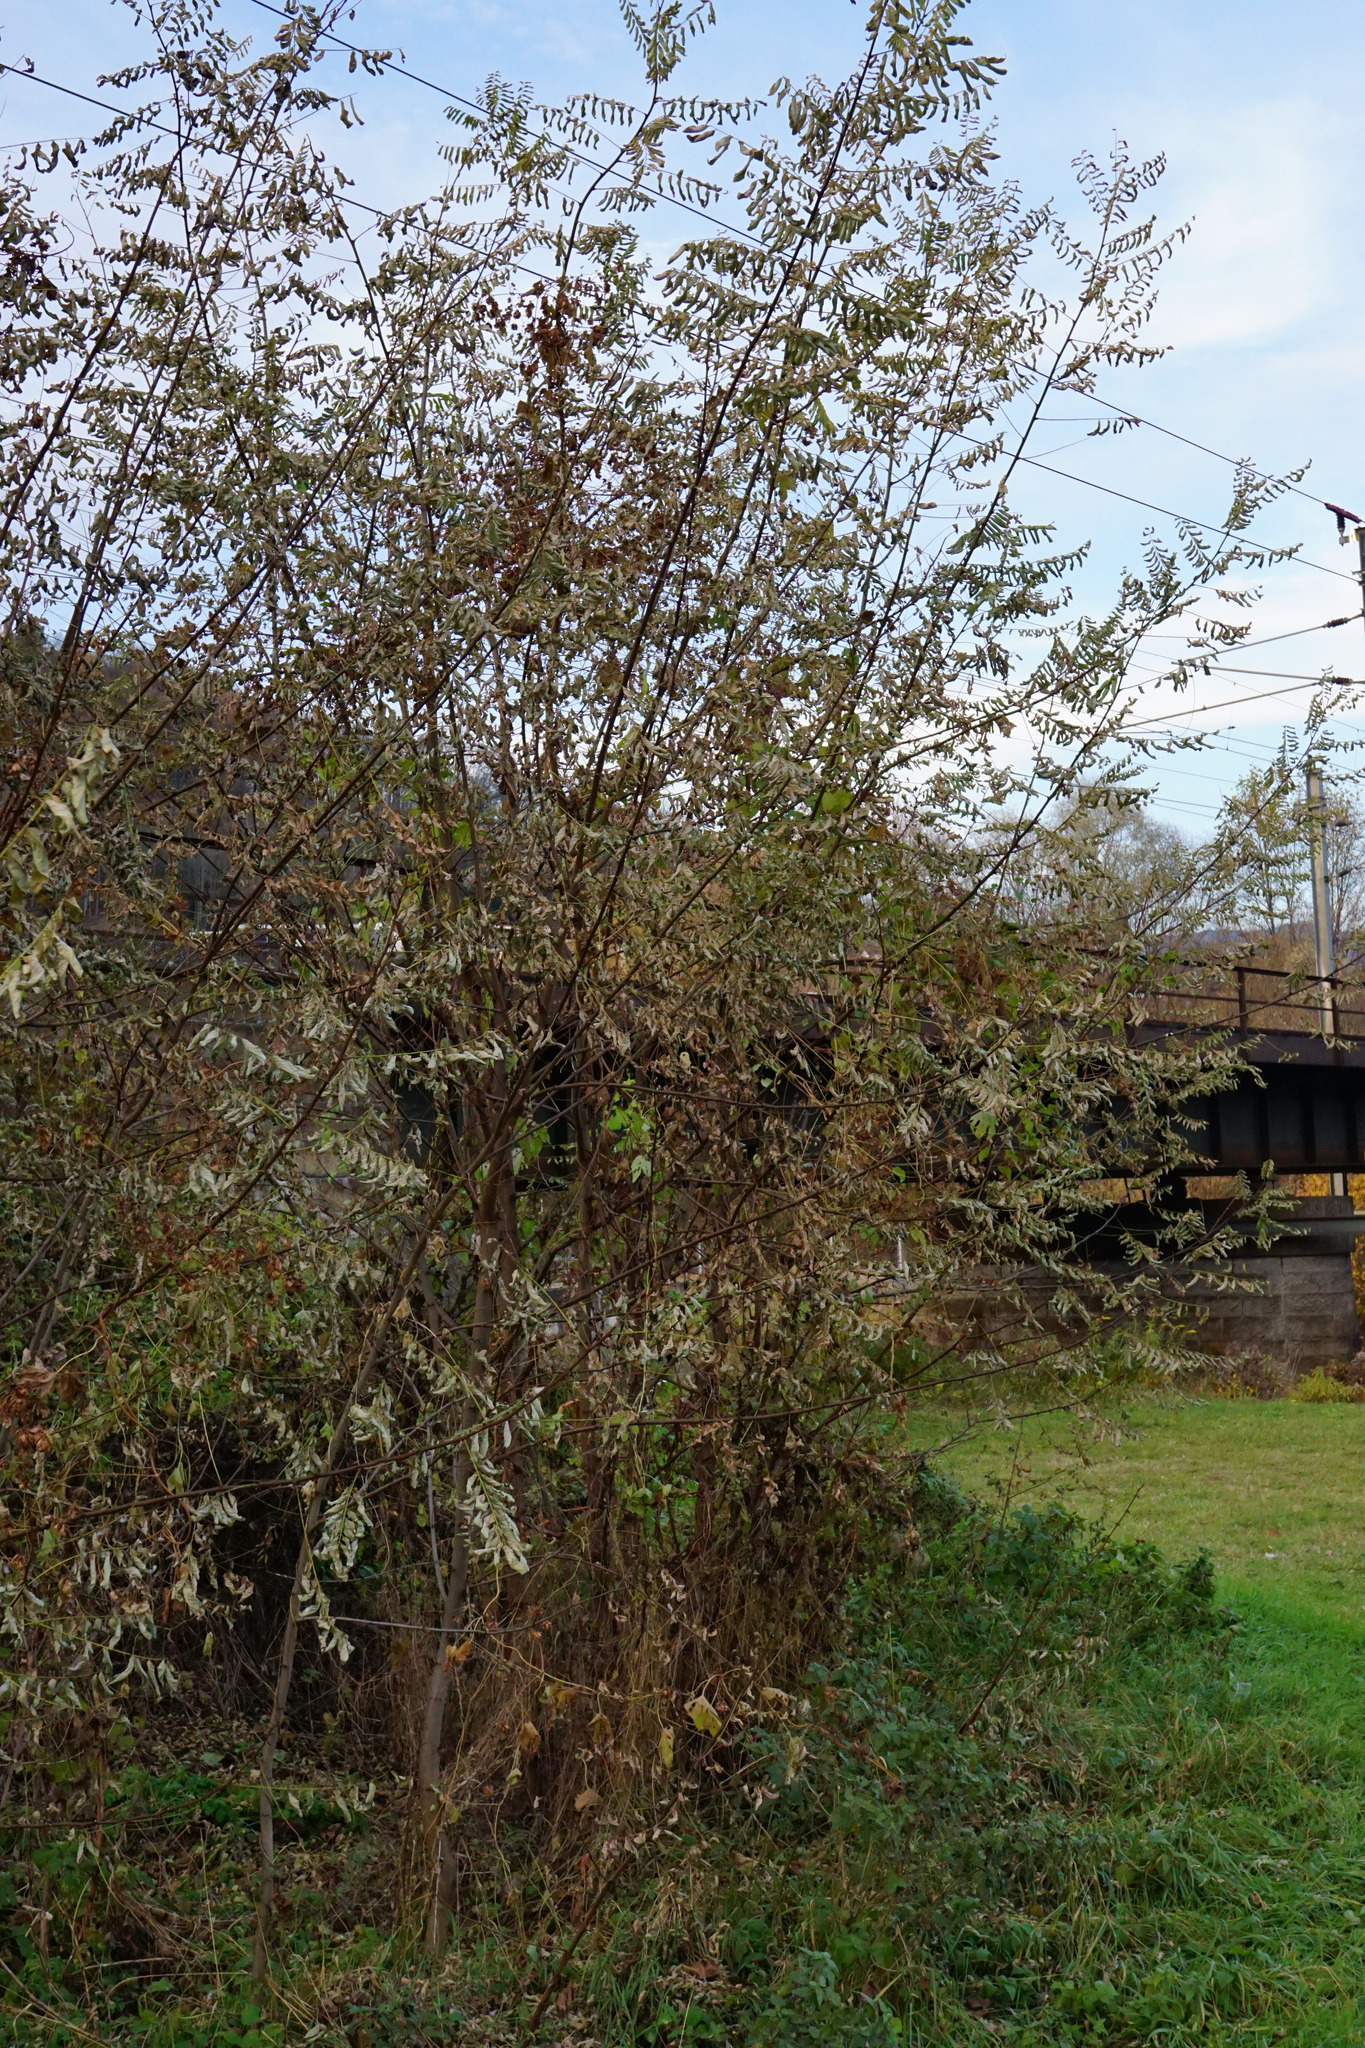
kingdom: Plantae
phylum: Tracheophyta
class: Magnoliopsida
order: Fabales
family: Fabaceae
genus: Robinia
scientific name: Robinia pseudoacacia
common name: Black locust
